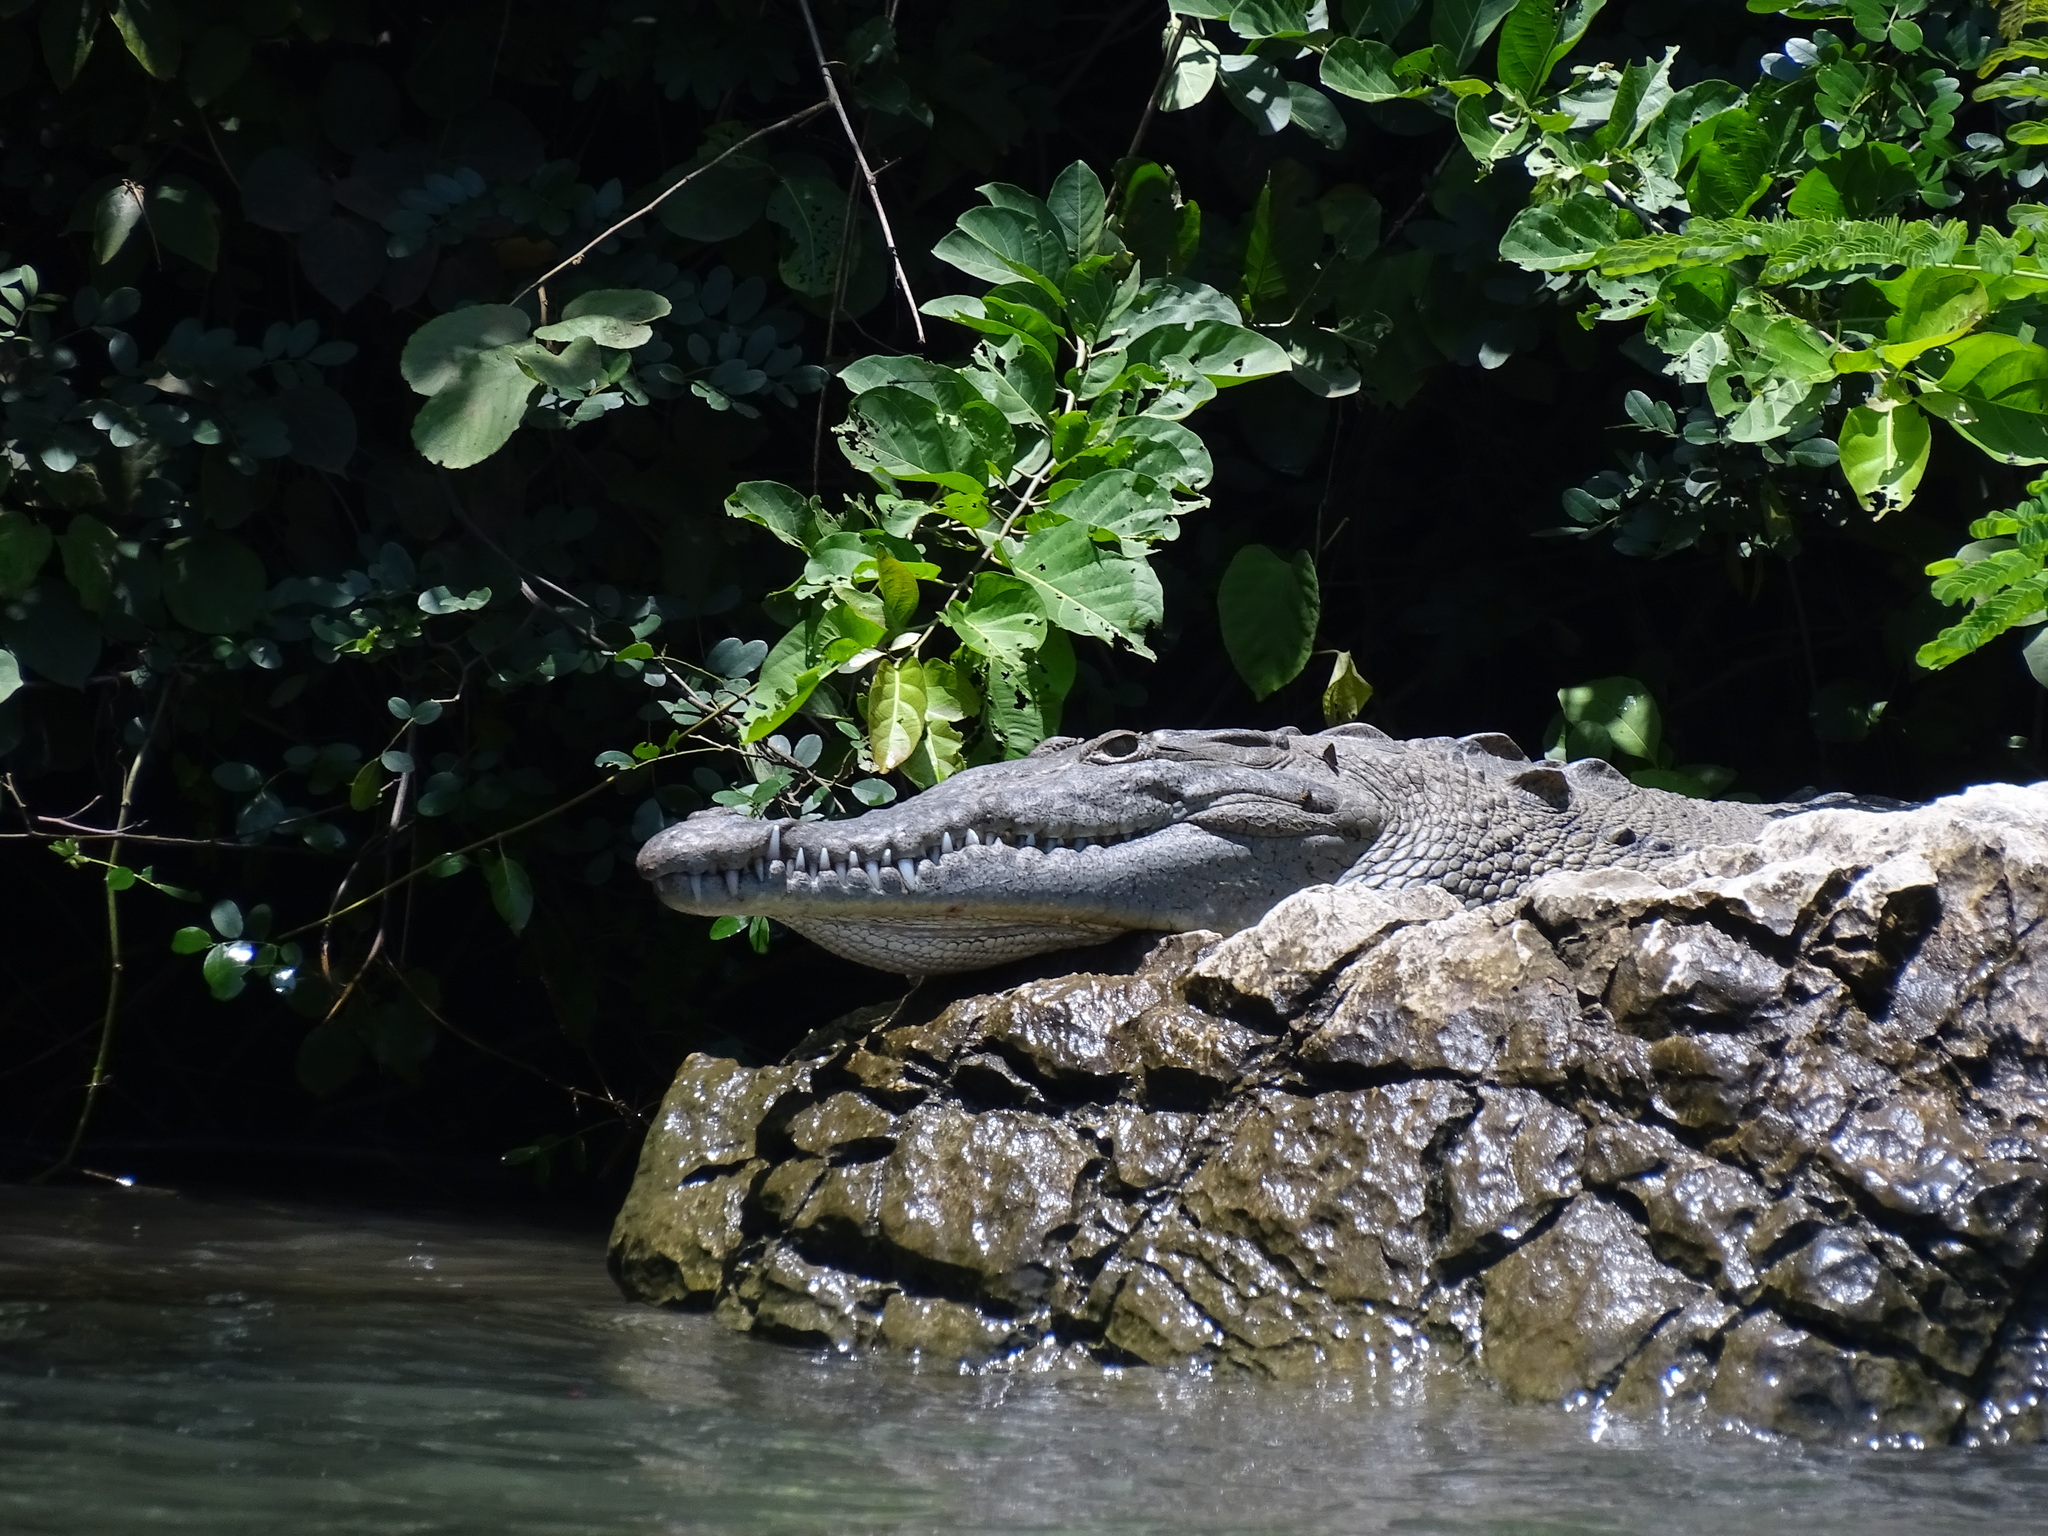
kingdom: Animalia
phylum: Chordata
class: Crocodylia
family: Crocodylidae
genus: Crocodylus
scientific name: Crocodylus acutus
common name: American crocodile
